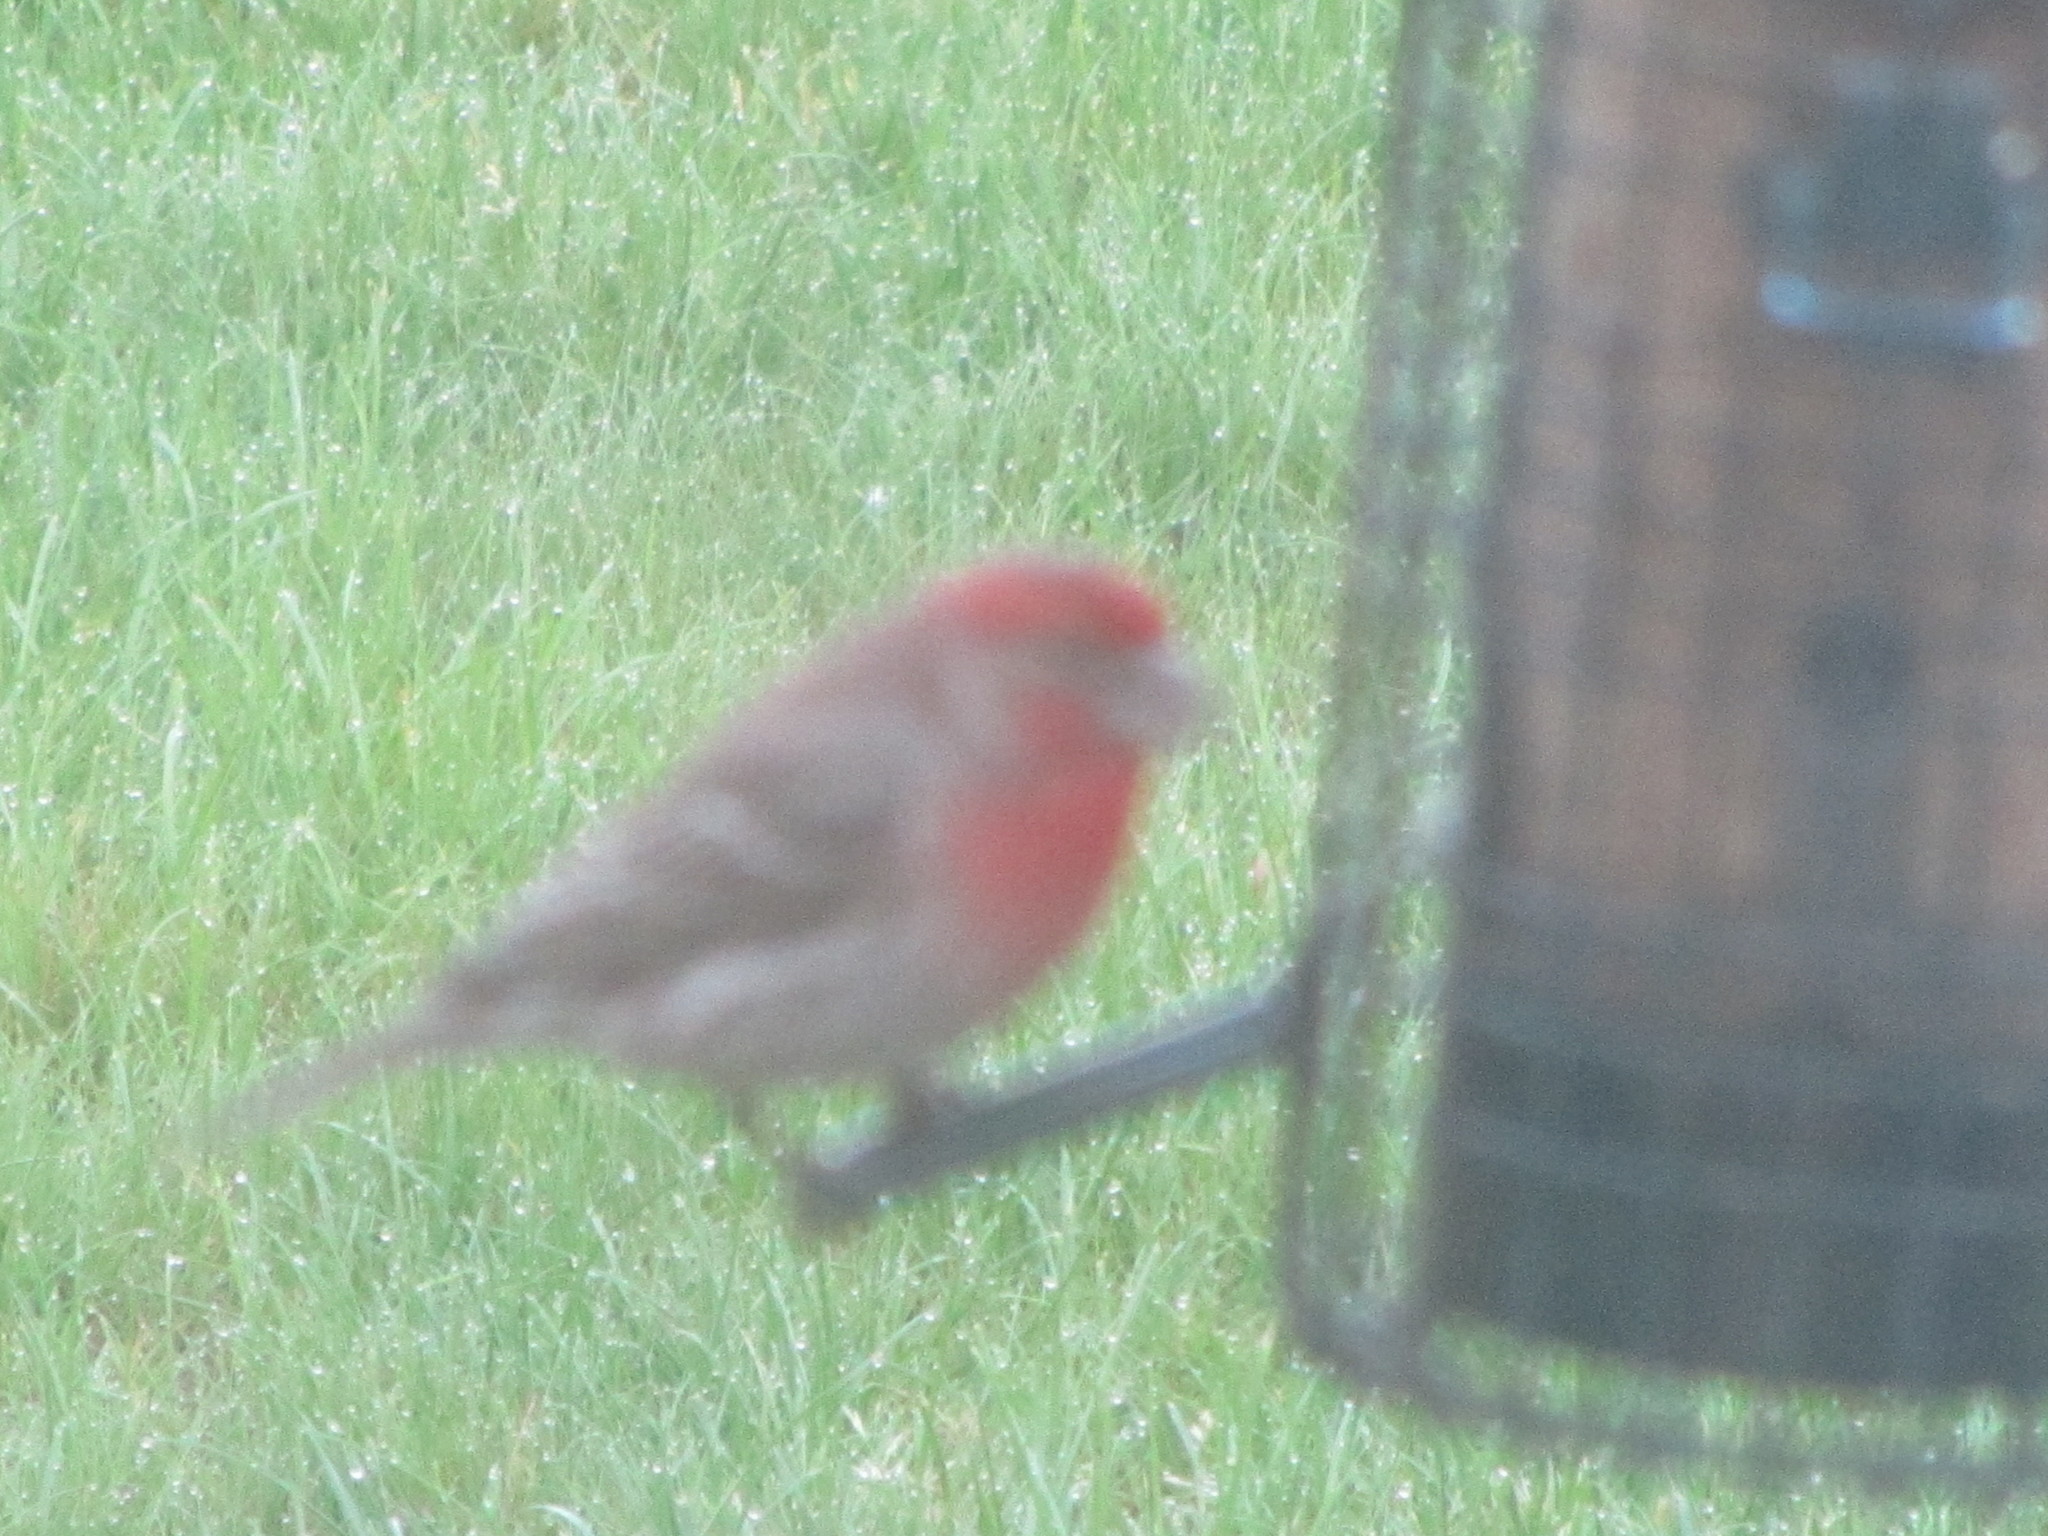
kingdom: Animalia
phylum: Chordata
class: Aves
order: Passeriformes
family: Fringillidae
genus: Haemorhous
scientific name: Haemorhous mexicanus
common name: House finch
